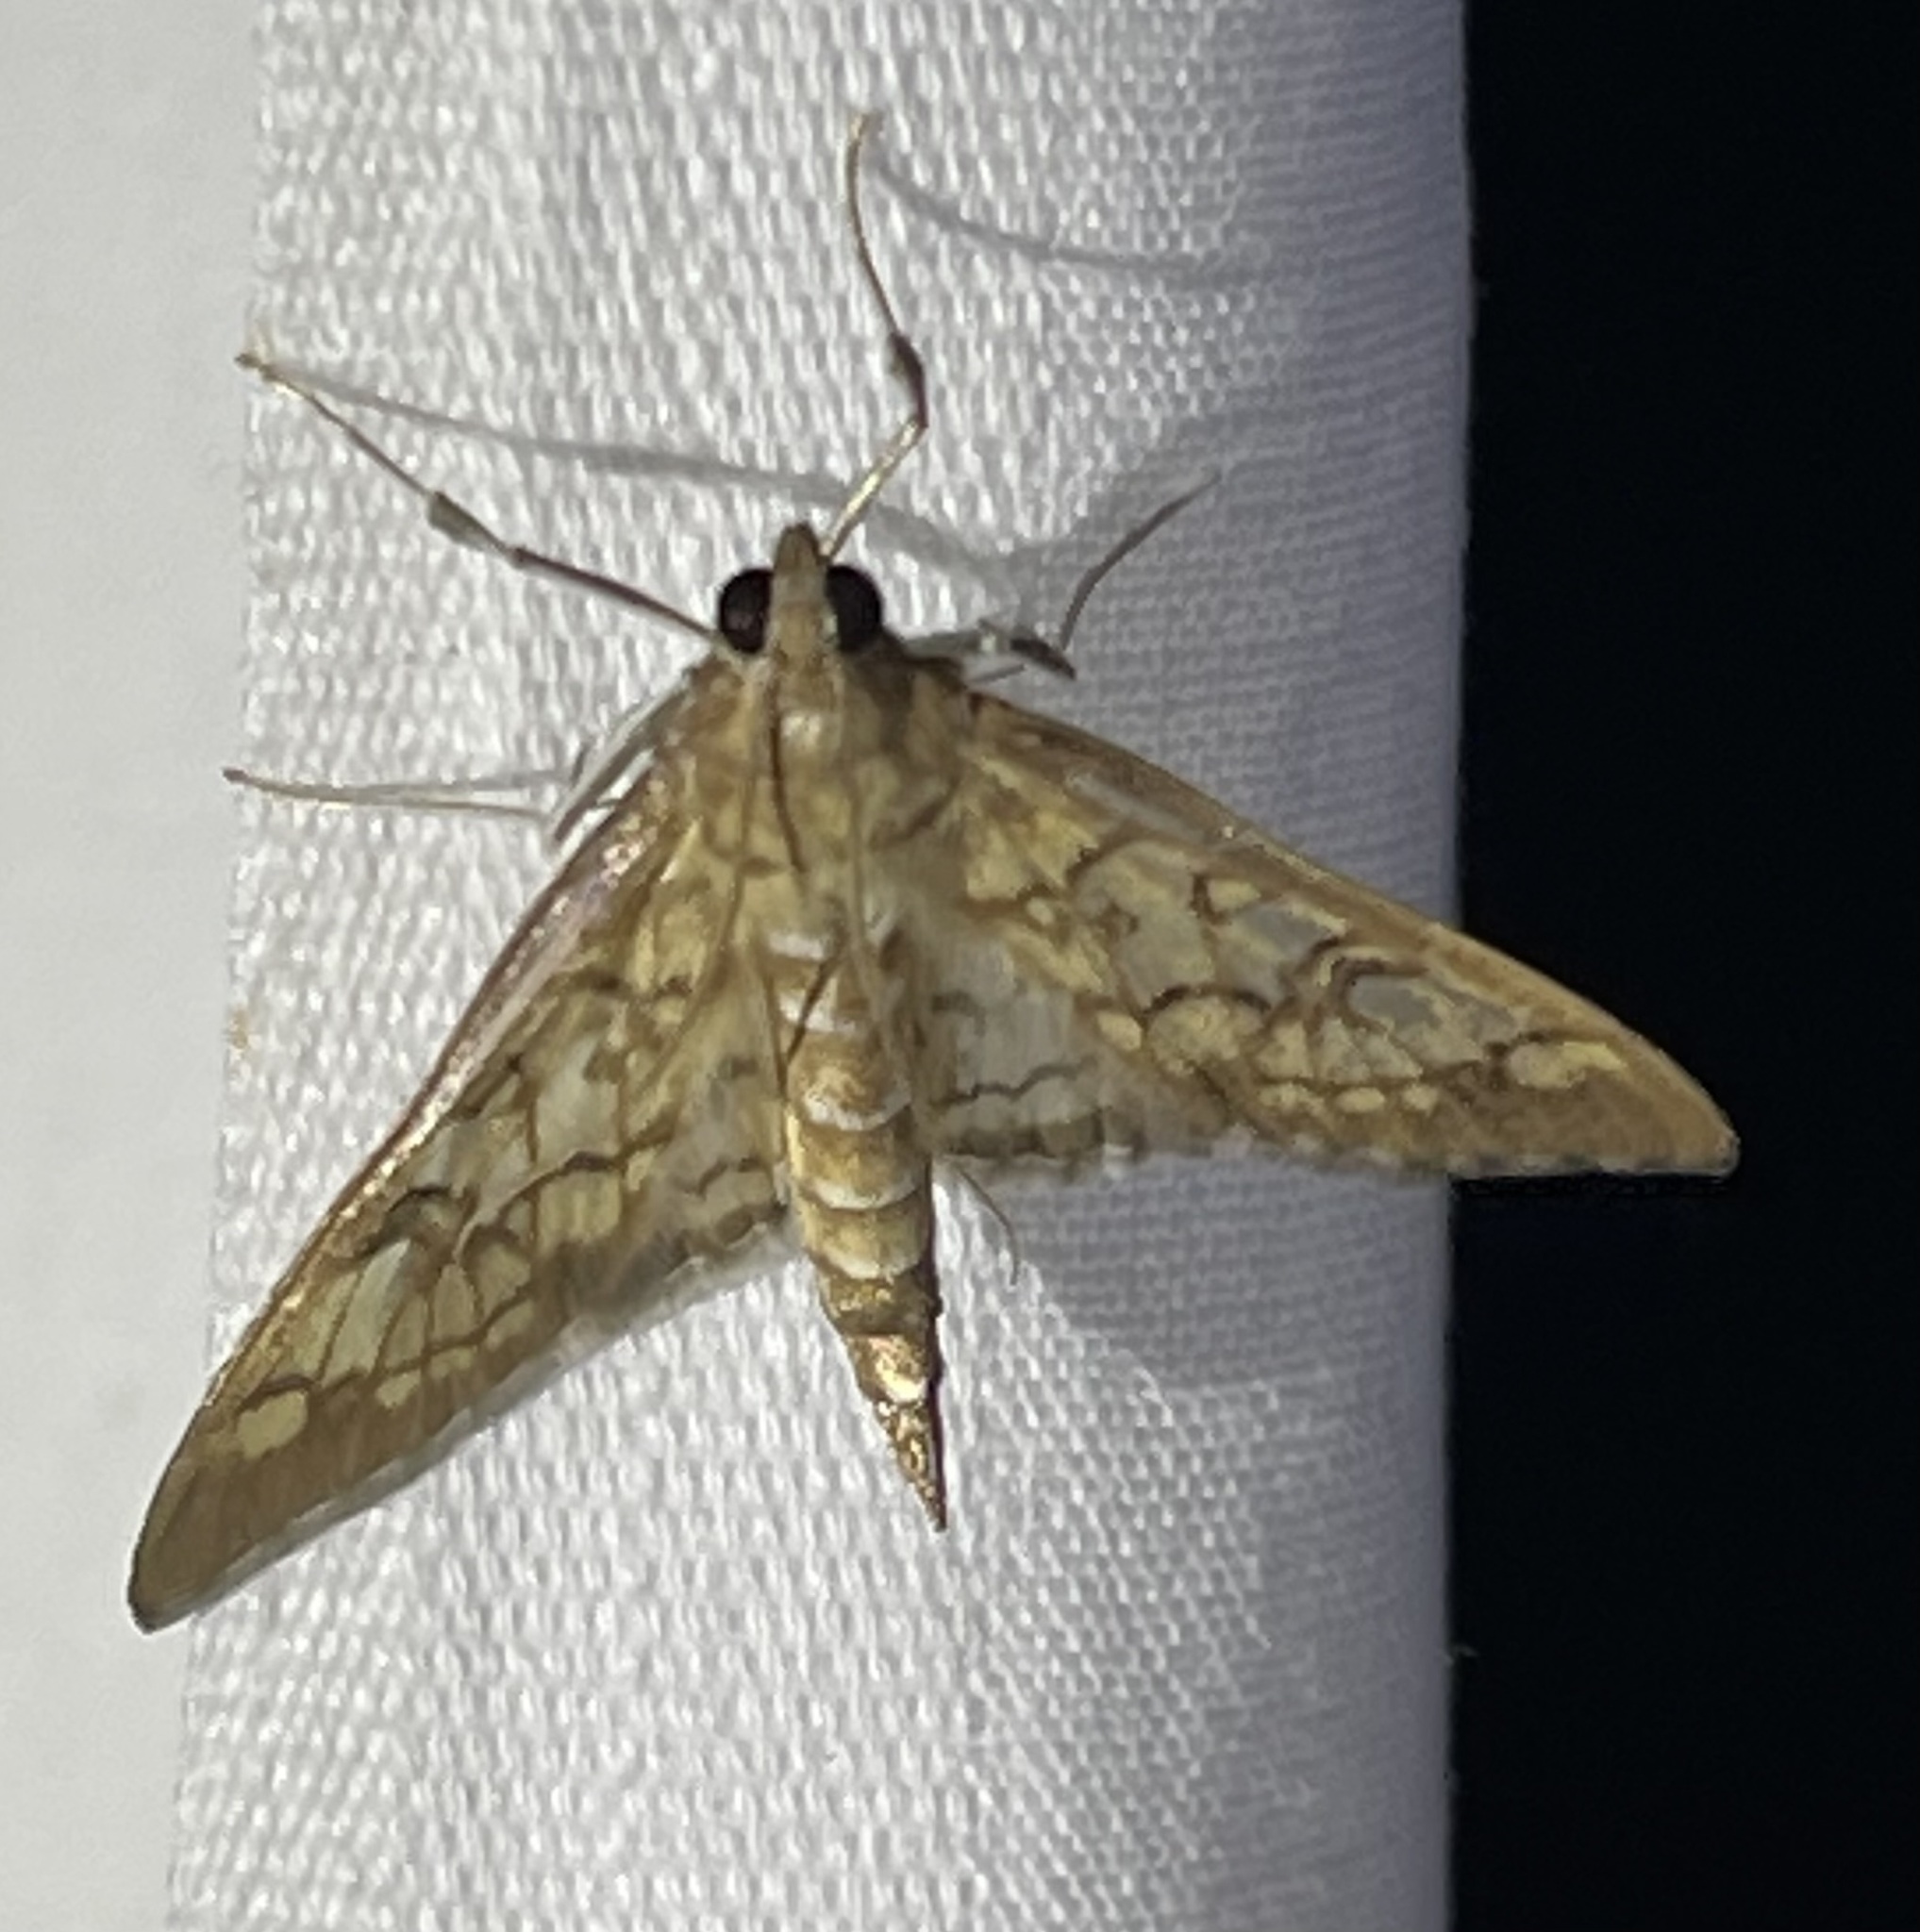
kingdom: Animalia
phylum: Arthropoda
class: Insecta
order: Lepidoptera
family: Crambidae
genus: Mimorista
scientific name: Mimorista subcostalis
